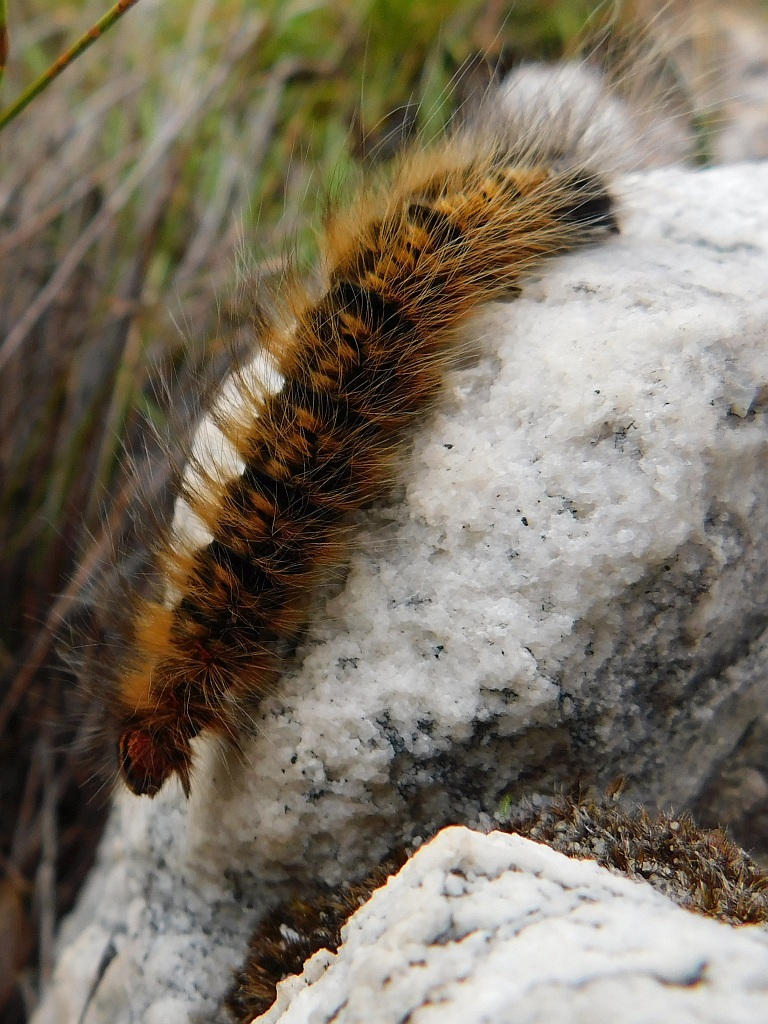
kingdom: Animalia
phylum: Arthropoda
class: Insecta
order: Lepidoptera
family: Lasiocampidae
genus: Mesocelis
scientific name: Mesocelis monticola
